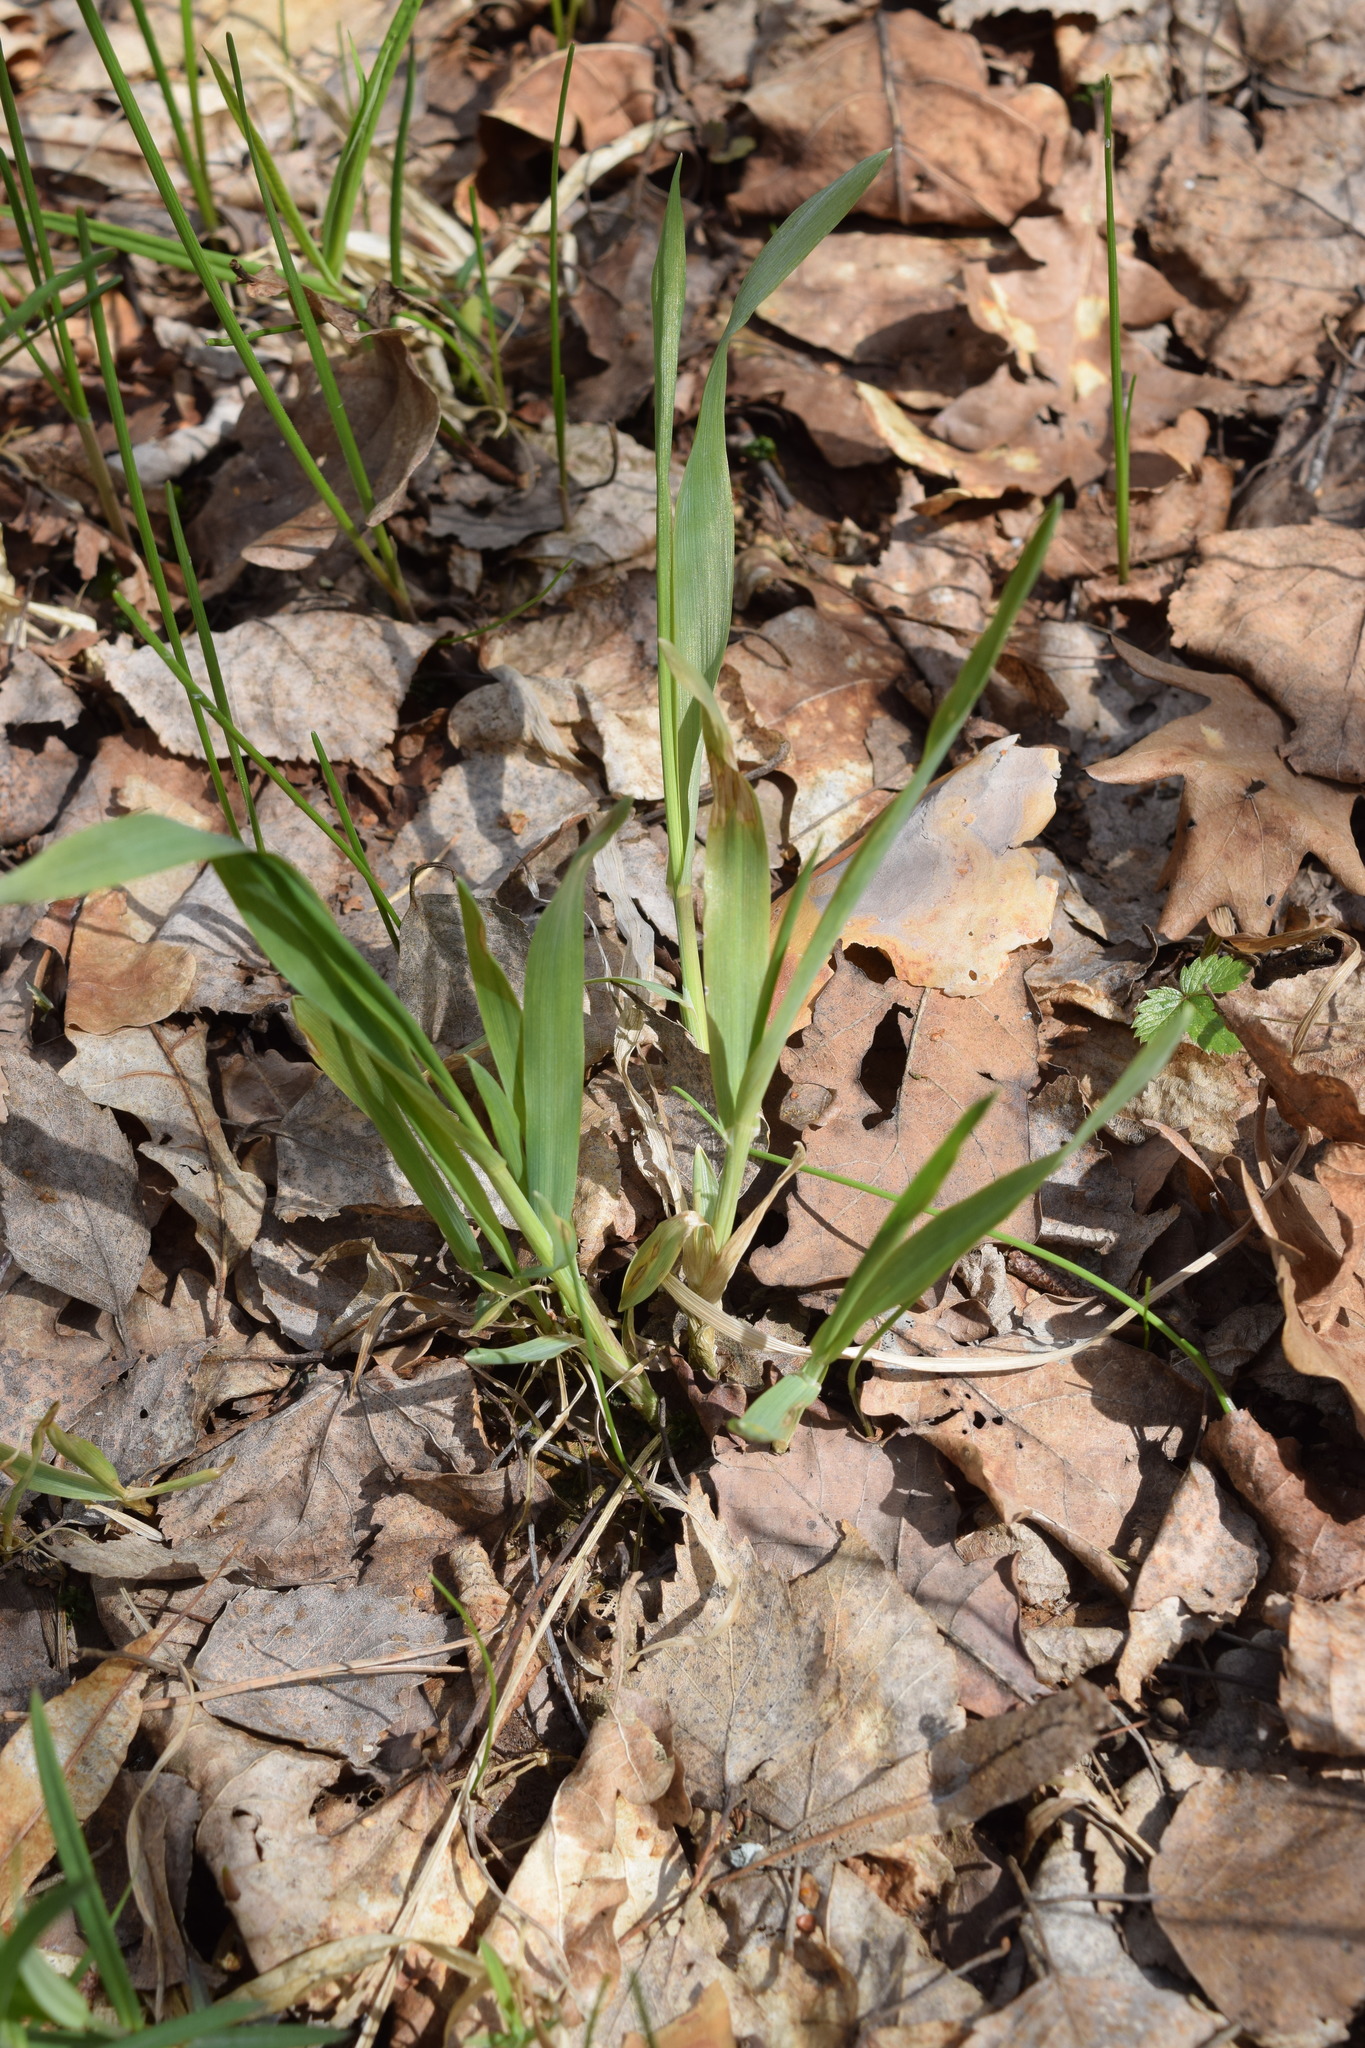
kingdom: Plantae
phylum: Tracheophyta
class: Liliopsida
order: Poales
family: Poaceae
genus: Milium
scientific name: Milium effusum
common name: Wood millet
